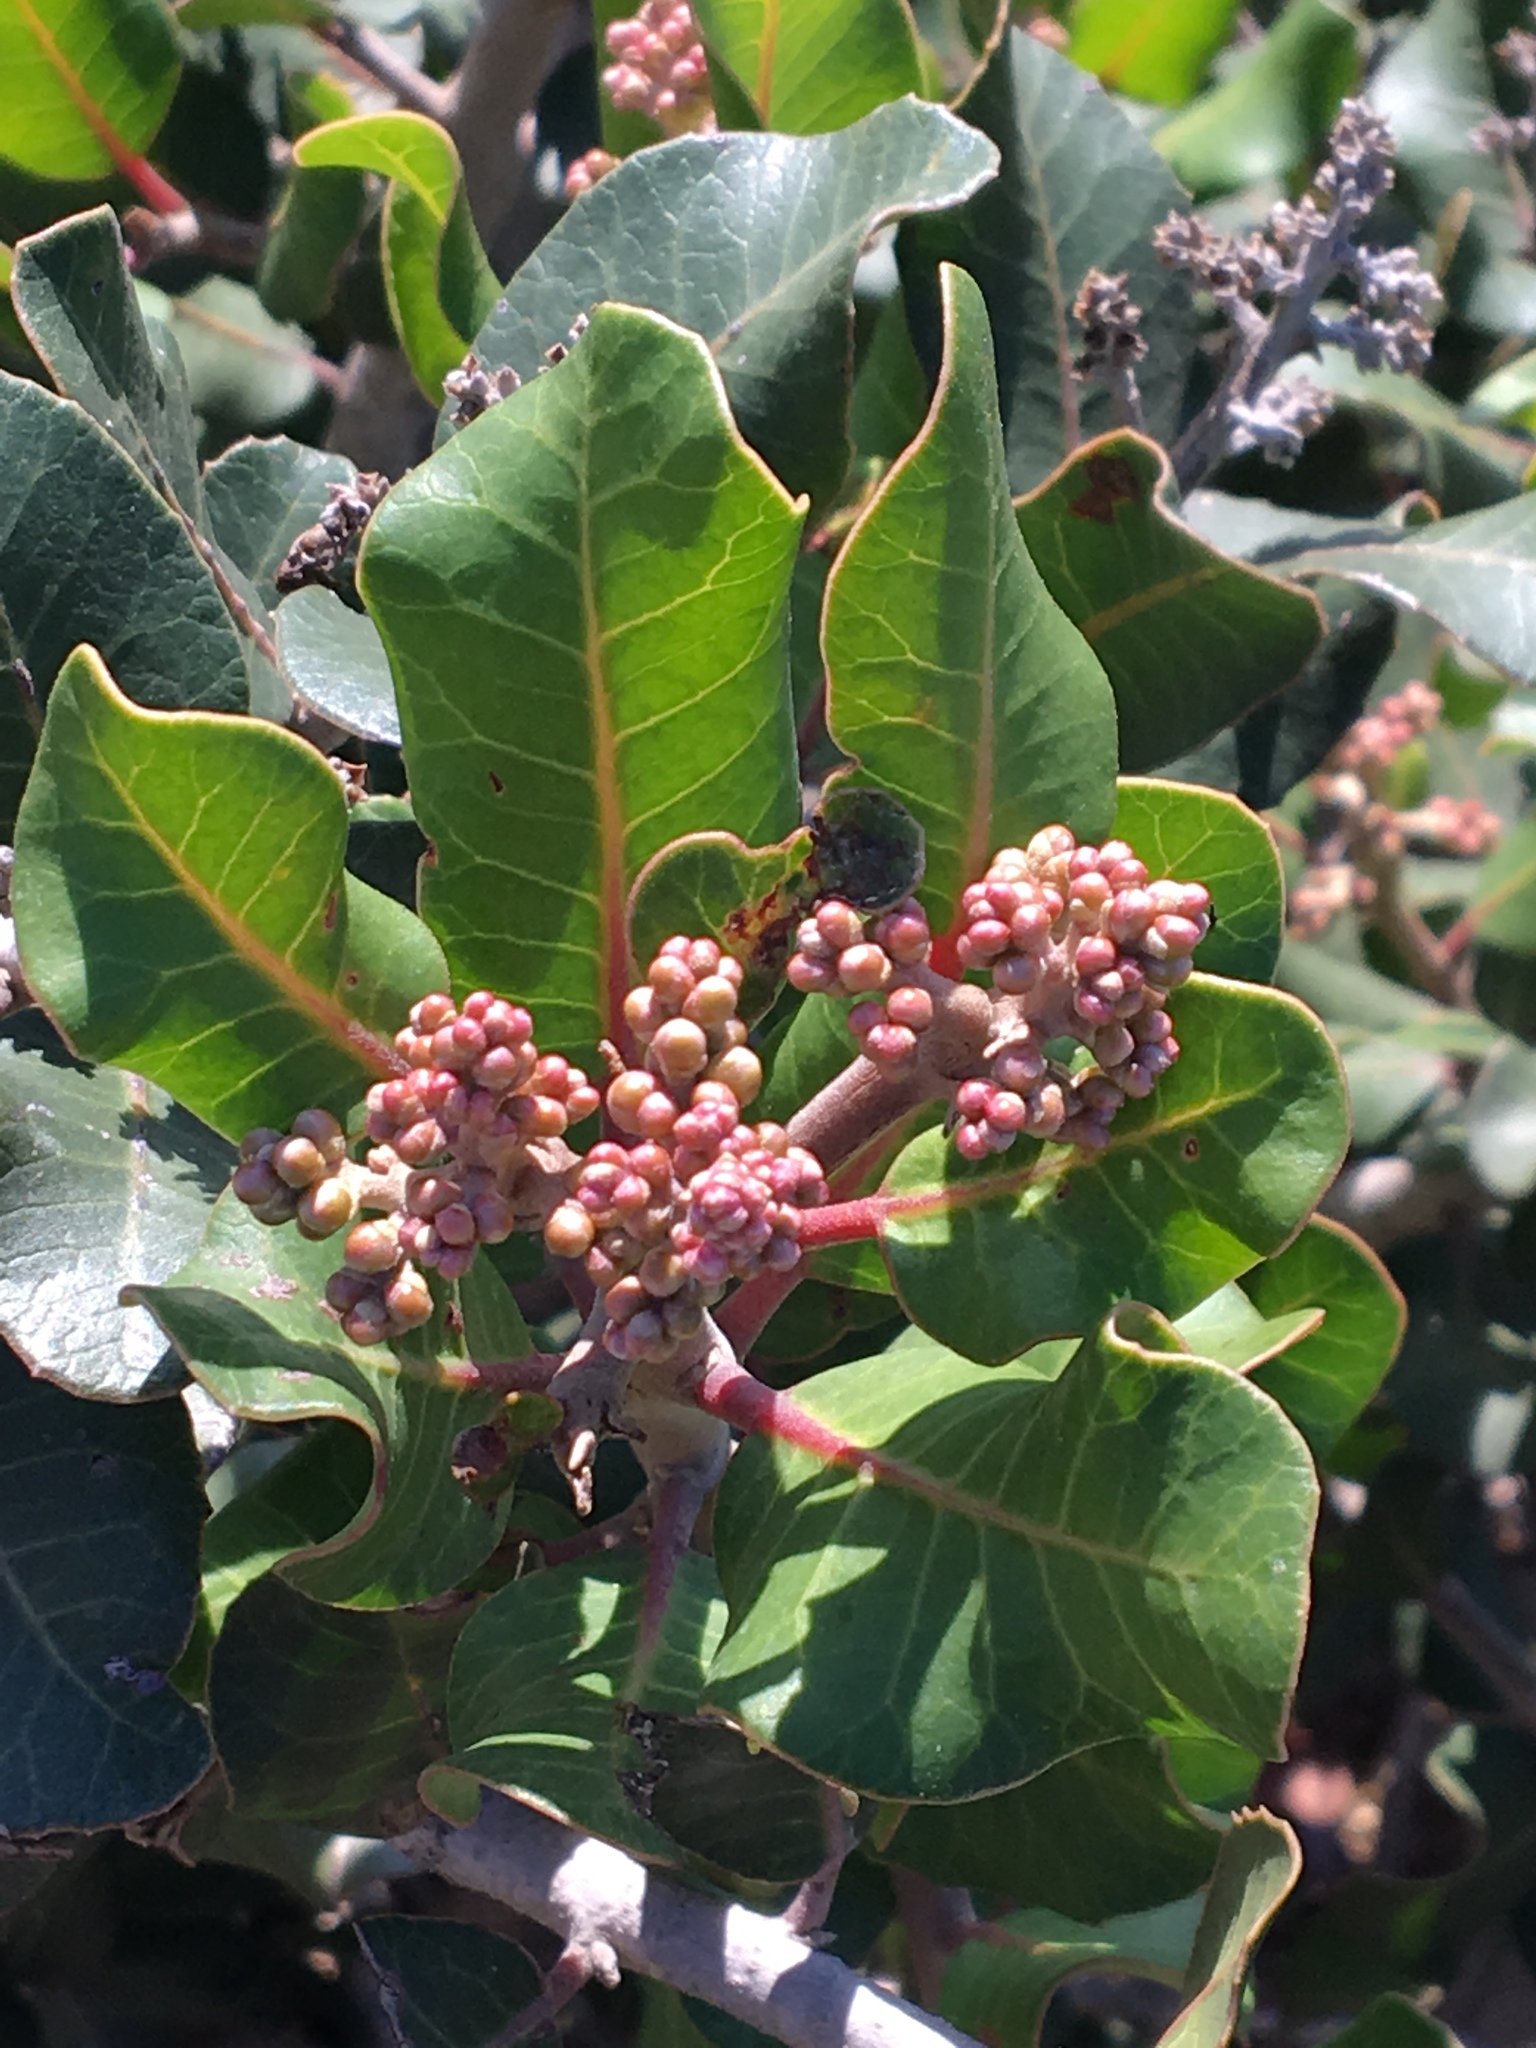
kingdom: Plantae
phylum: Tracheophyta
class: Magnoliopsida
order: Sapindales
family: Anacardiaceae
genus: Rhus
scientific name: Rhus integrifolia
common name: Lemonade sumac
